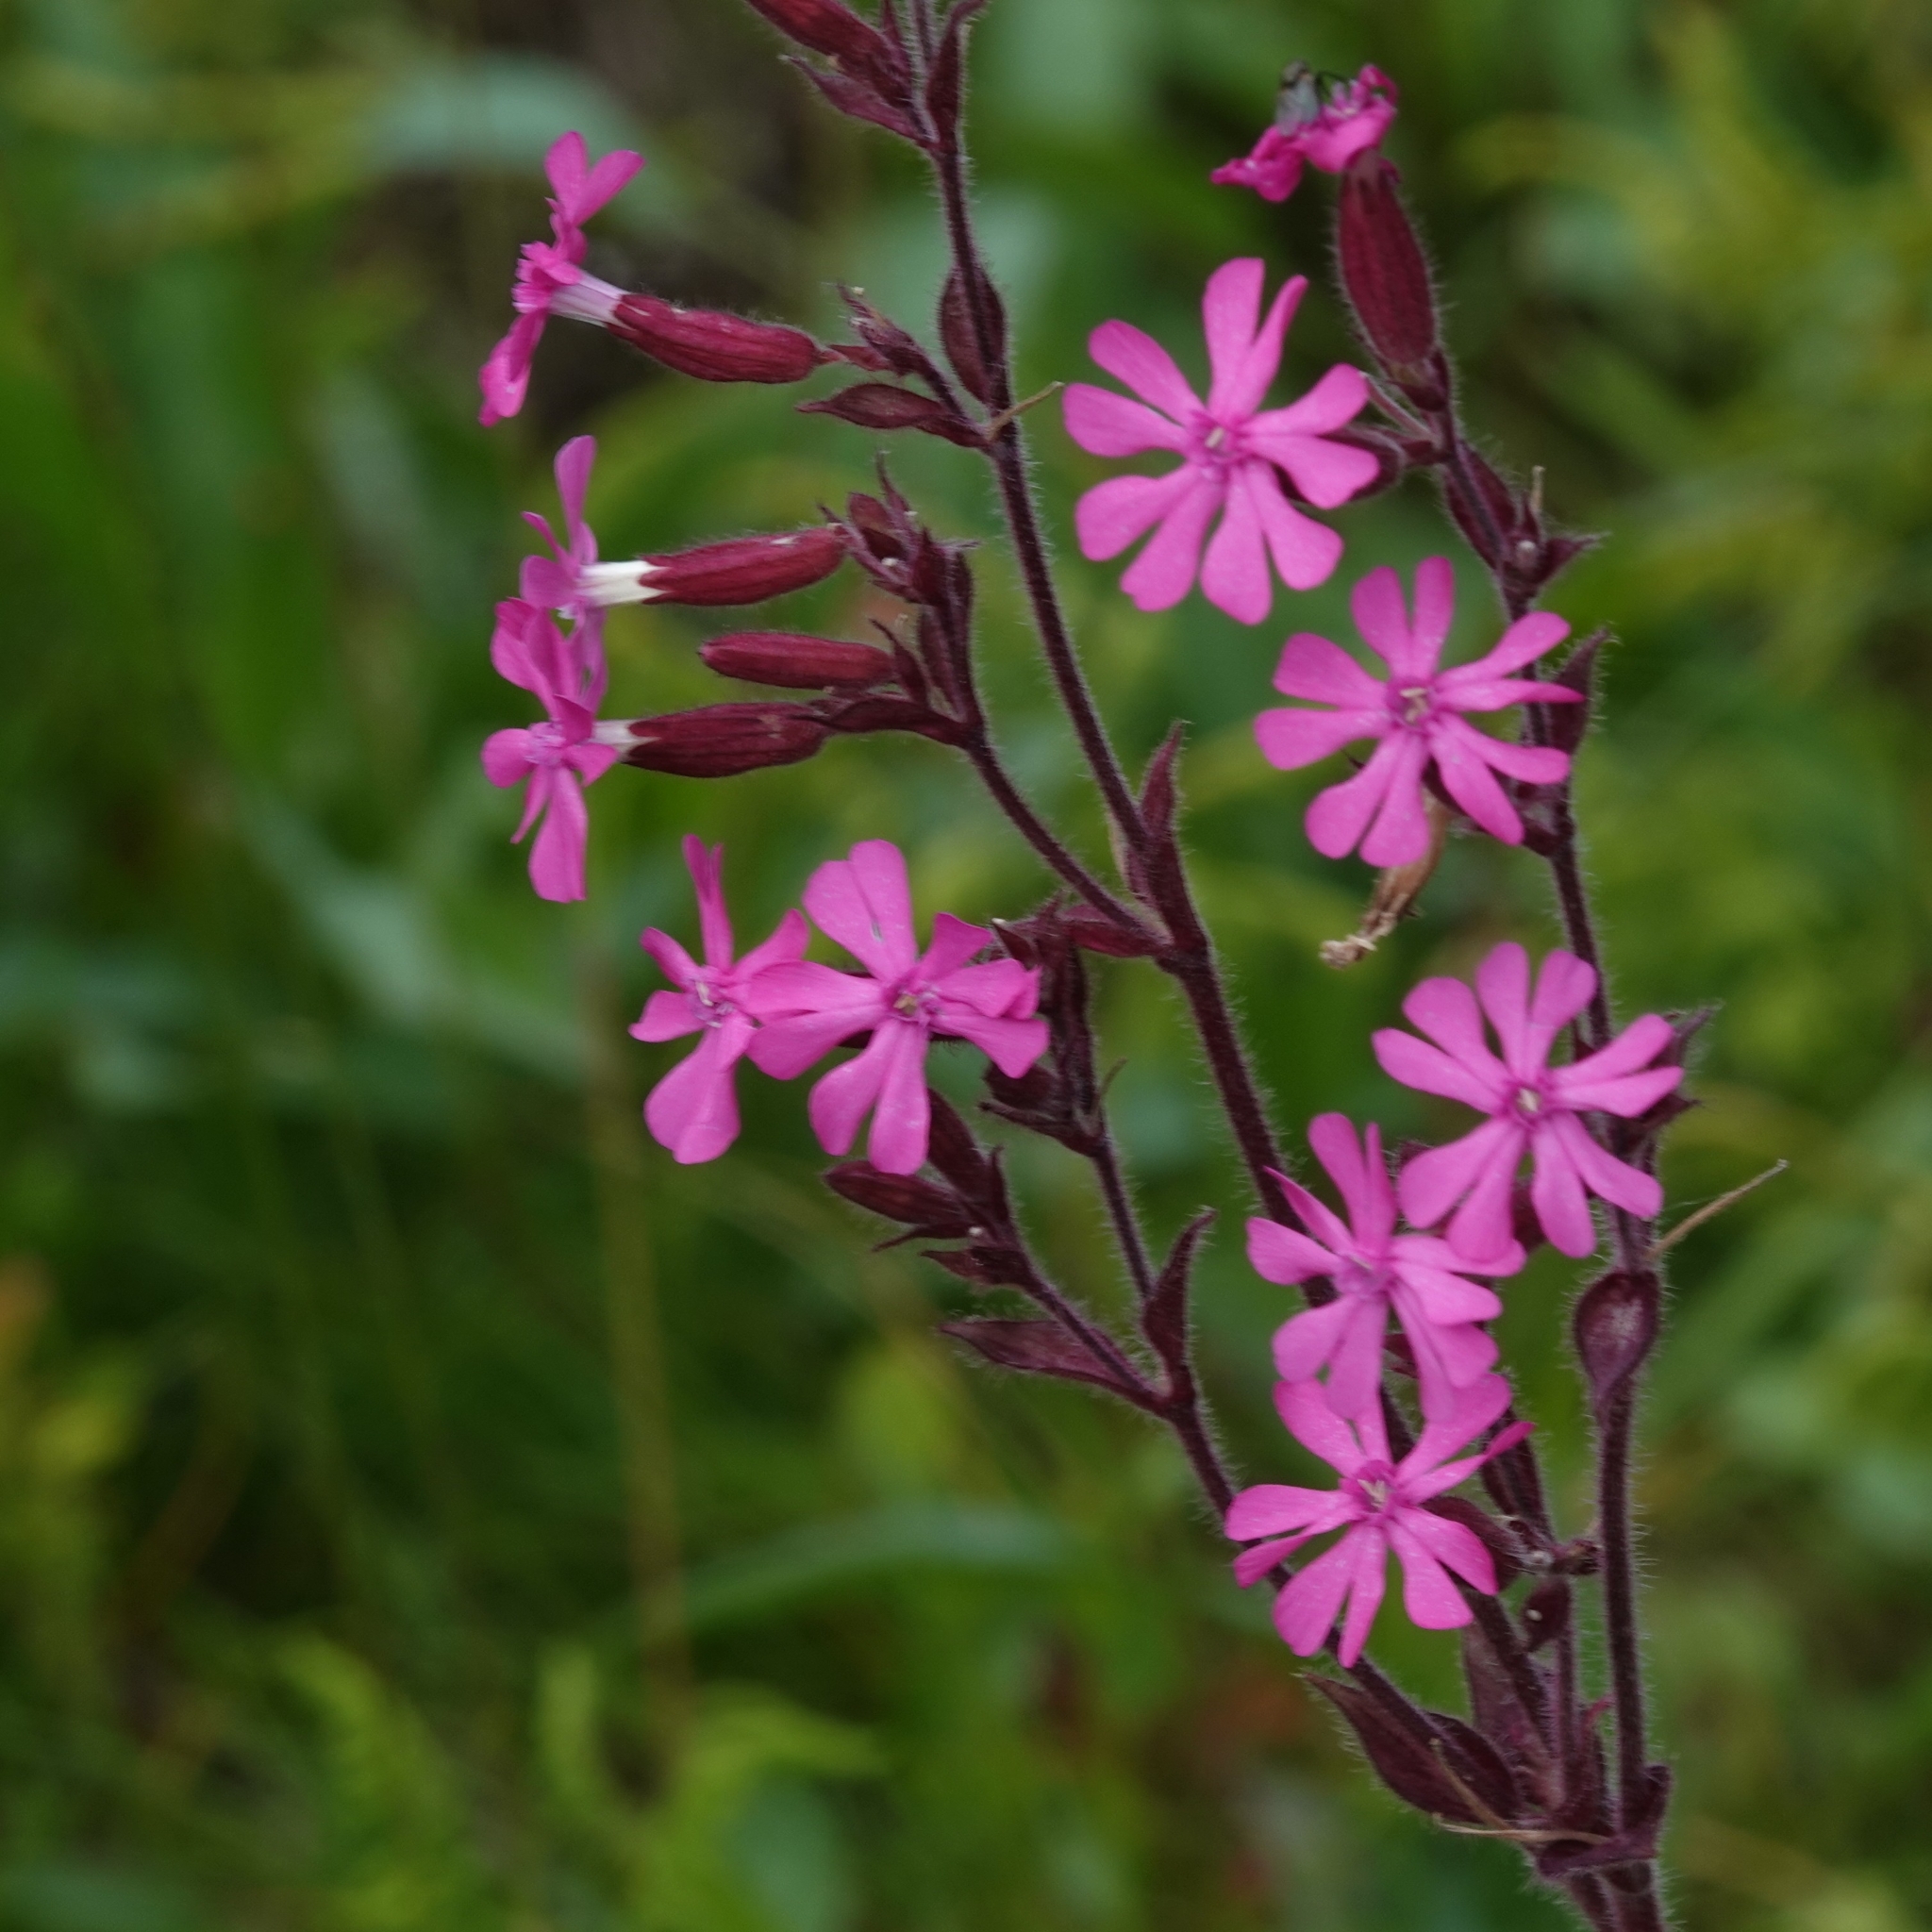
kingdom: Plantae
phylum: Tracheophyta
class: Magnoliopsida
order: Caryophyllales
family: Caryophyllaceae
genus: Silene
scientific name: Silene dioica
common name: Red campion
